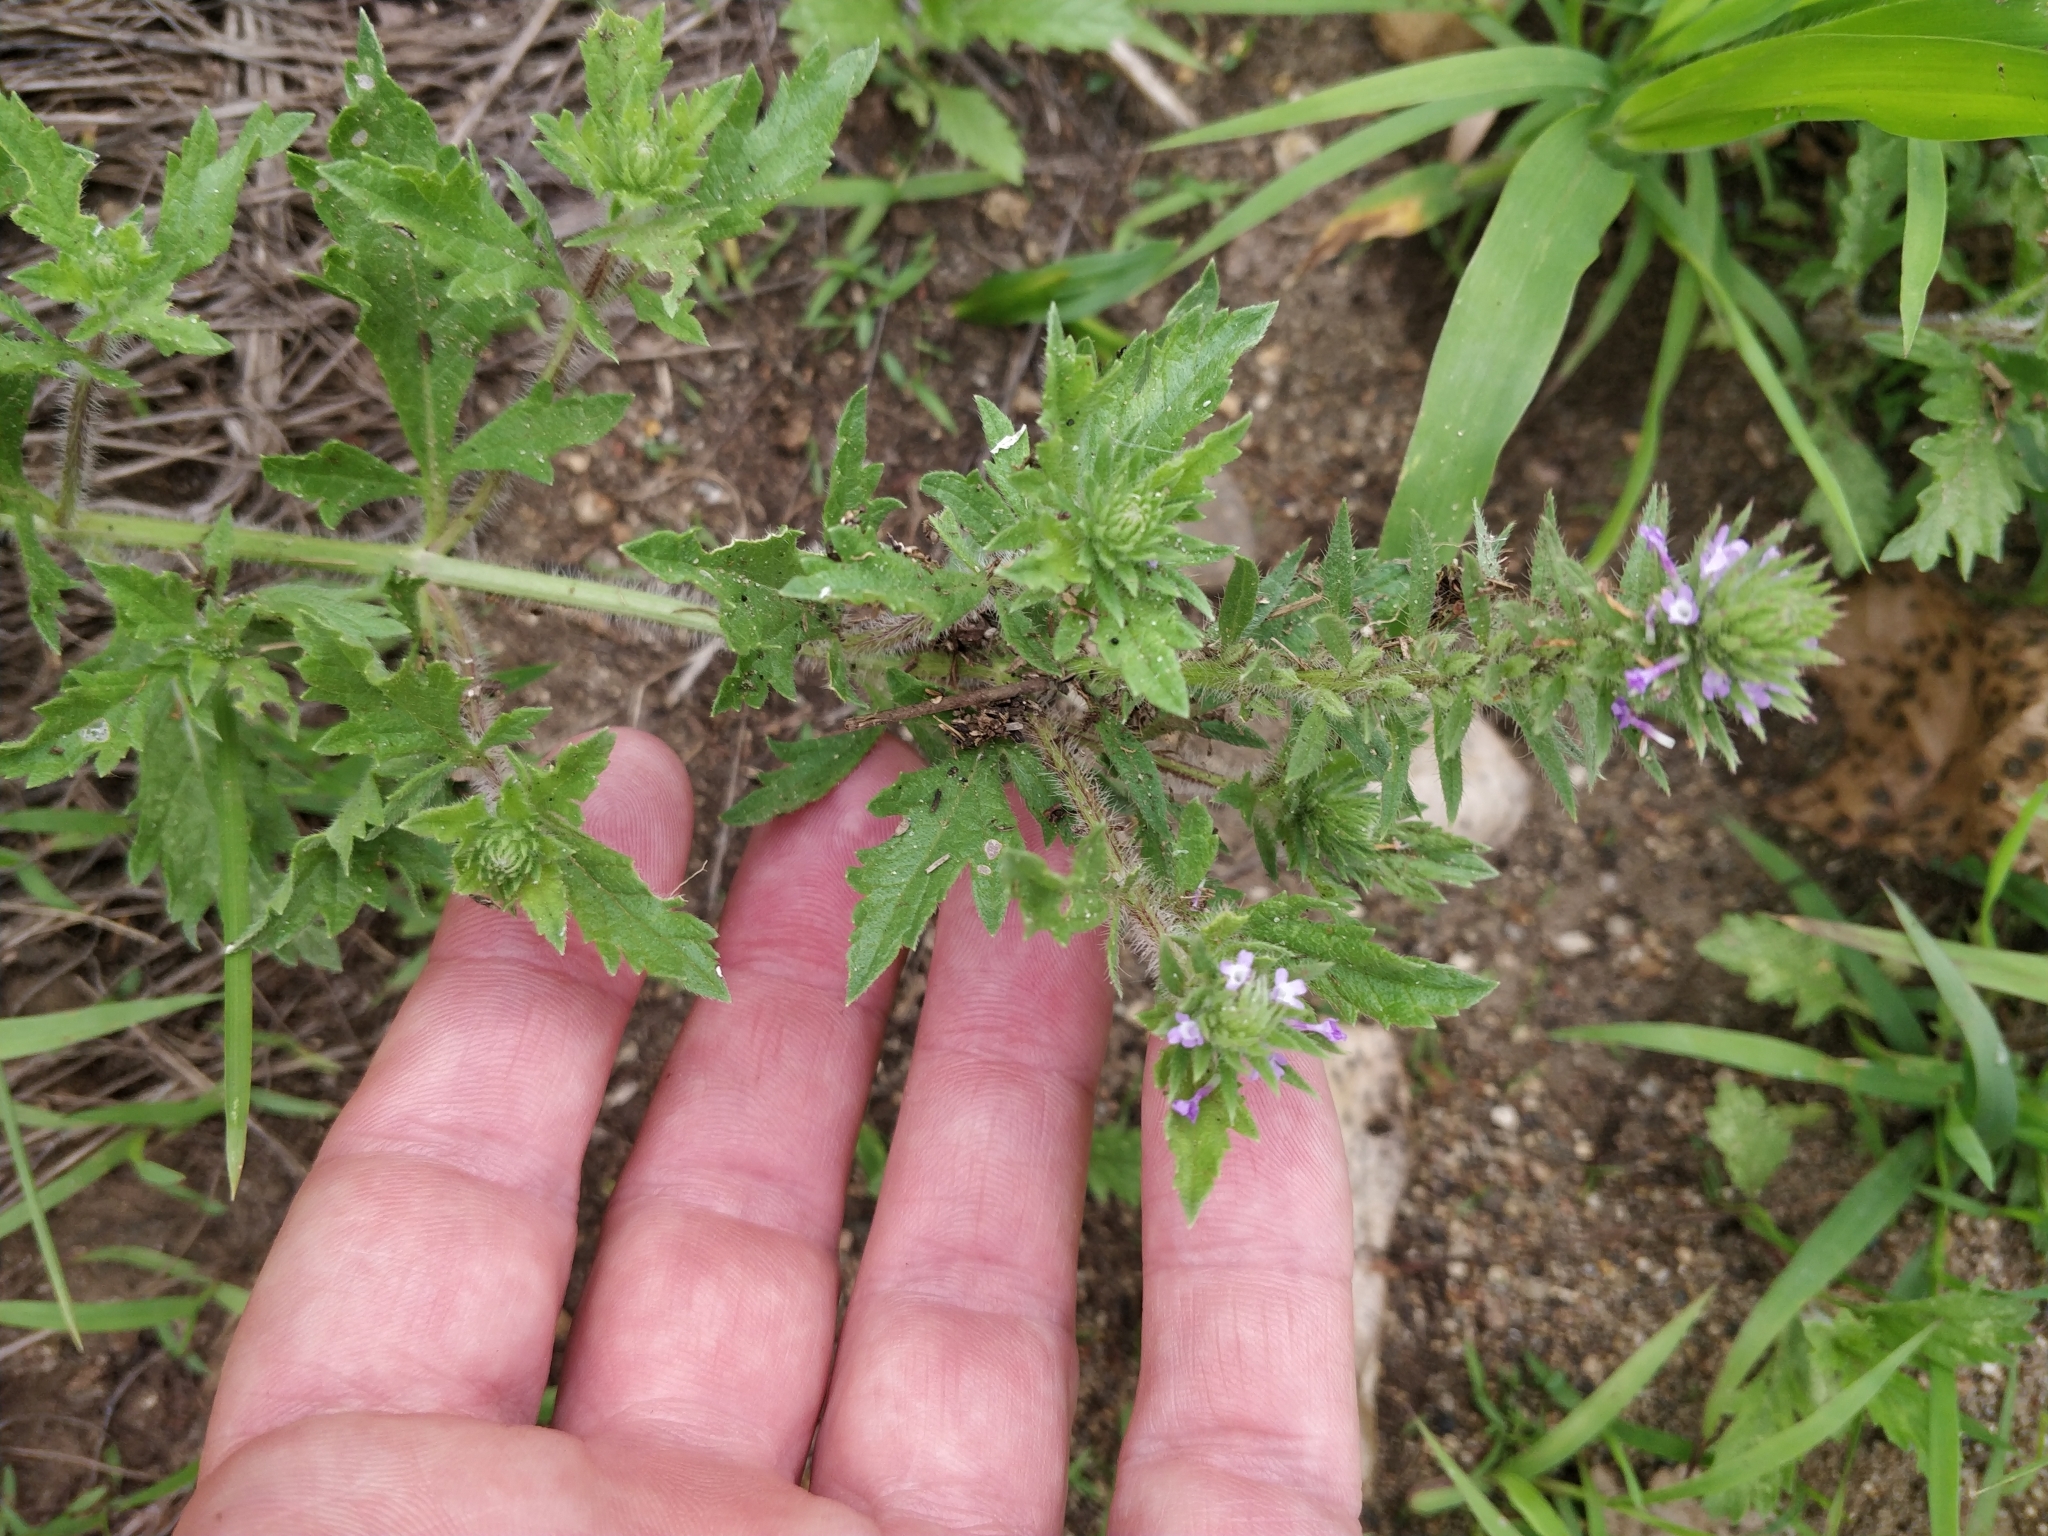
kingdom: Plantae
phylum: Tracheophyta
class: Magnoliopsida
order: Lamiales
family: Verbenaceae
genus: Verbena
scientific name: Verbena bracteata
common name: Bracted vervain
